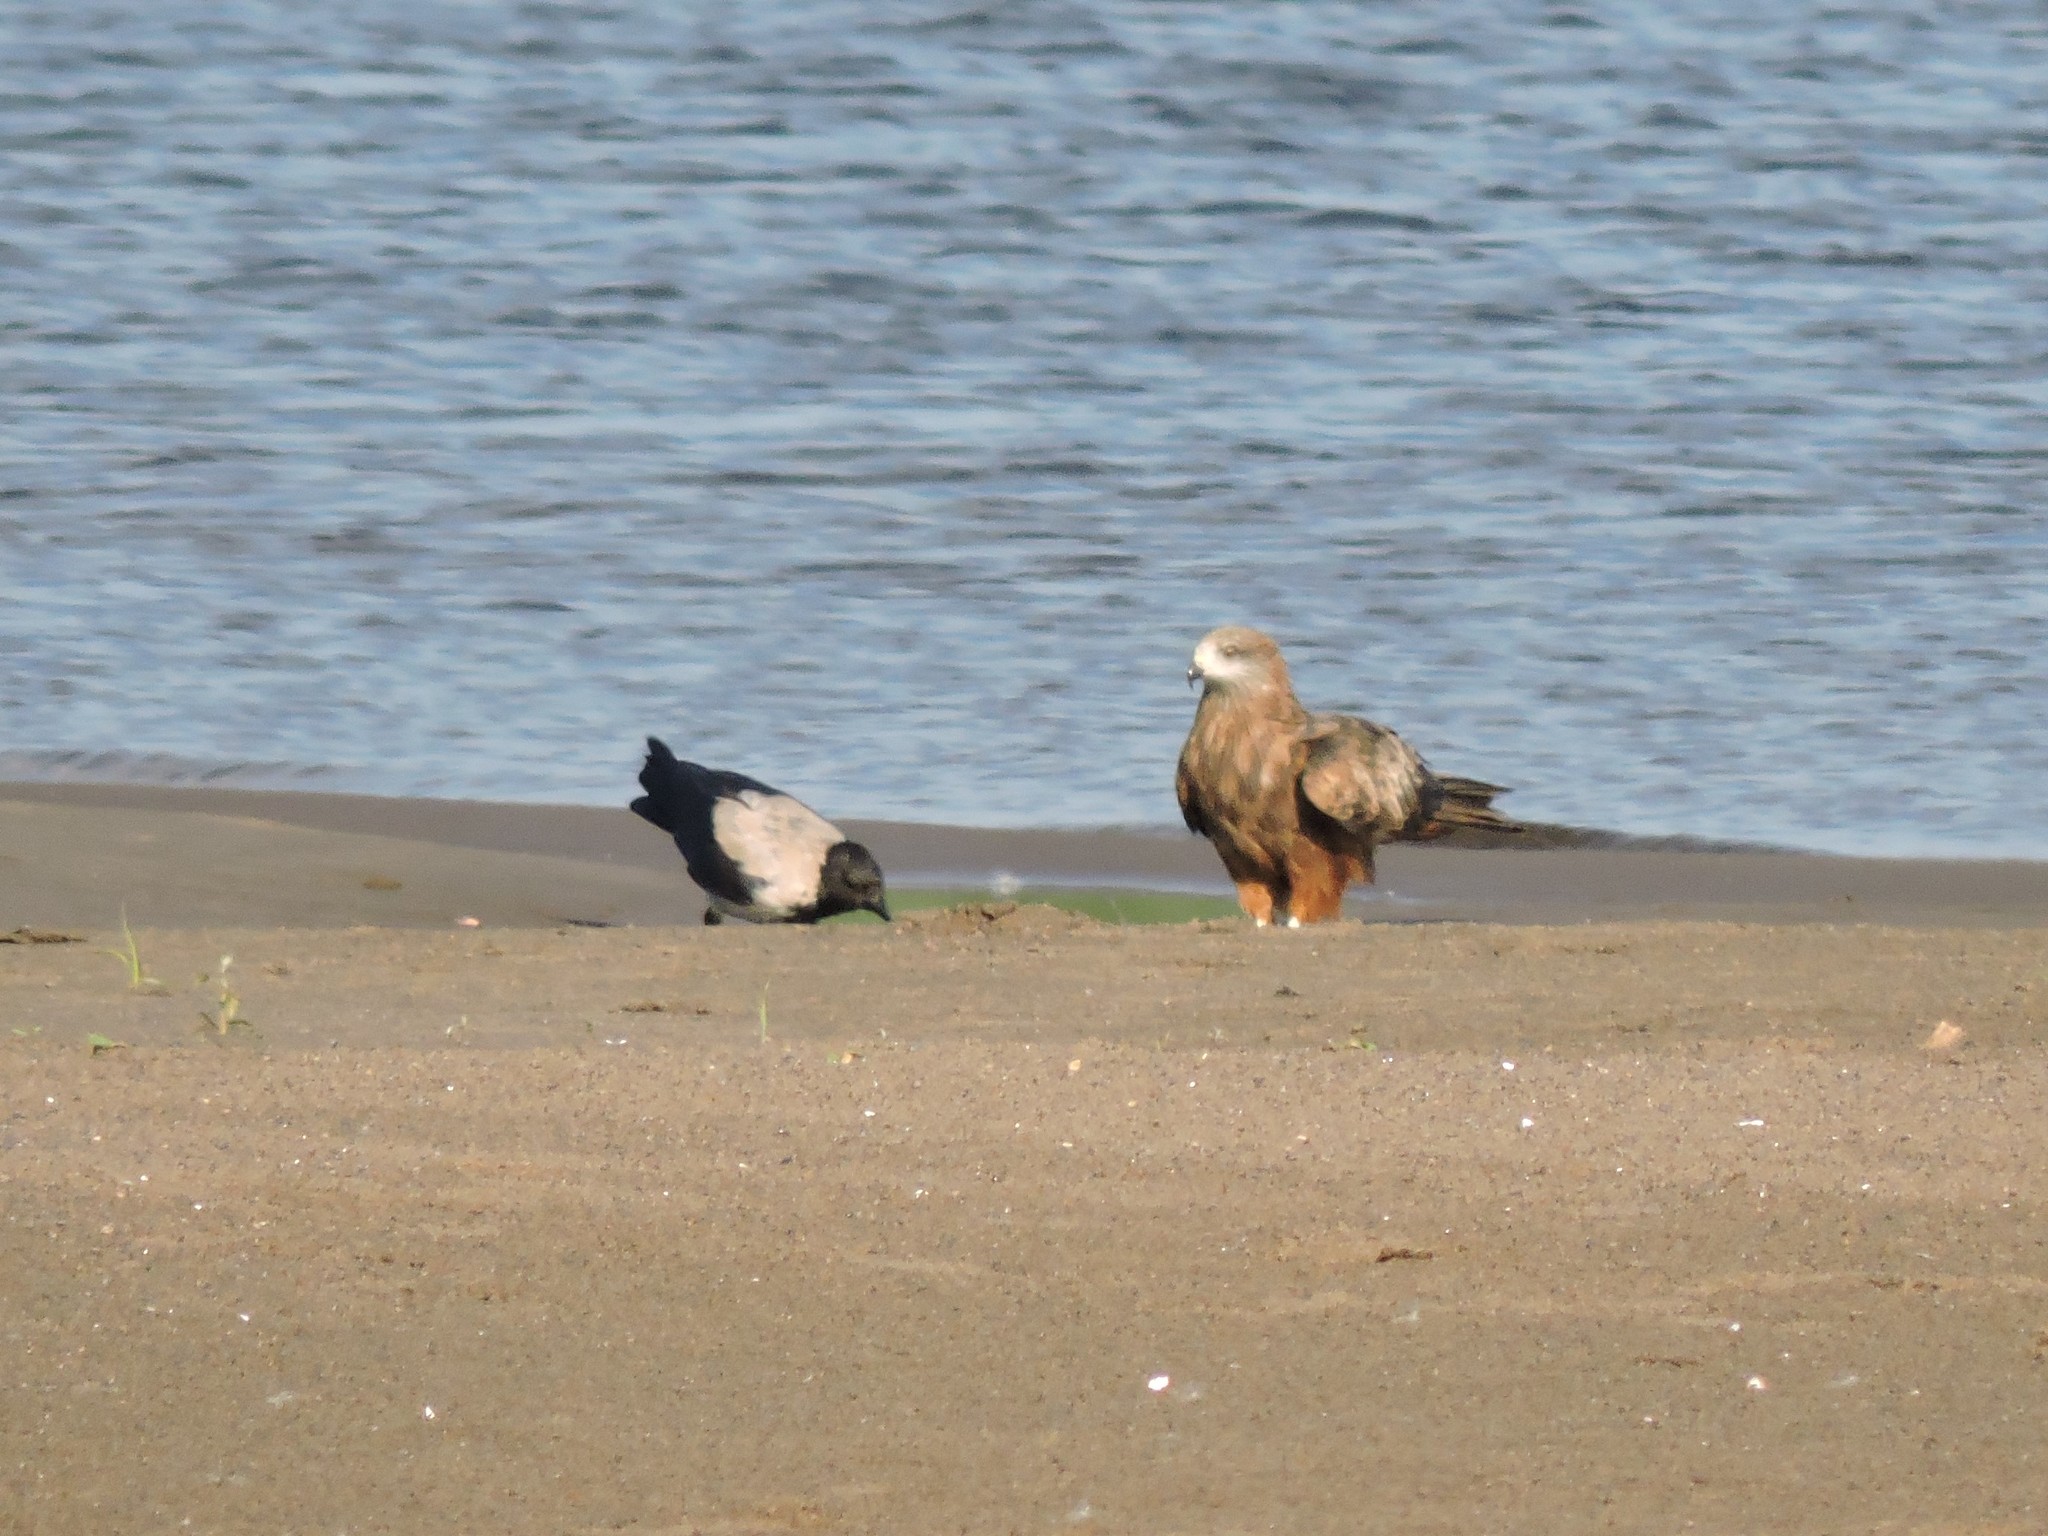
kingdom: Animalia
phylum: Chordata
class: Aves
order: Passeriformes
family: Corvidae
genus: Corvus
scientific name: Corvus cornix
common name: Hooded crow
